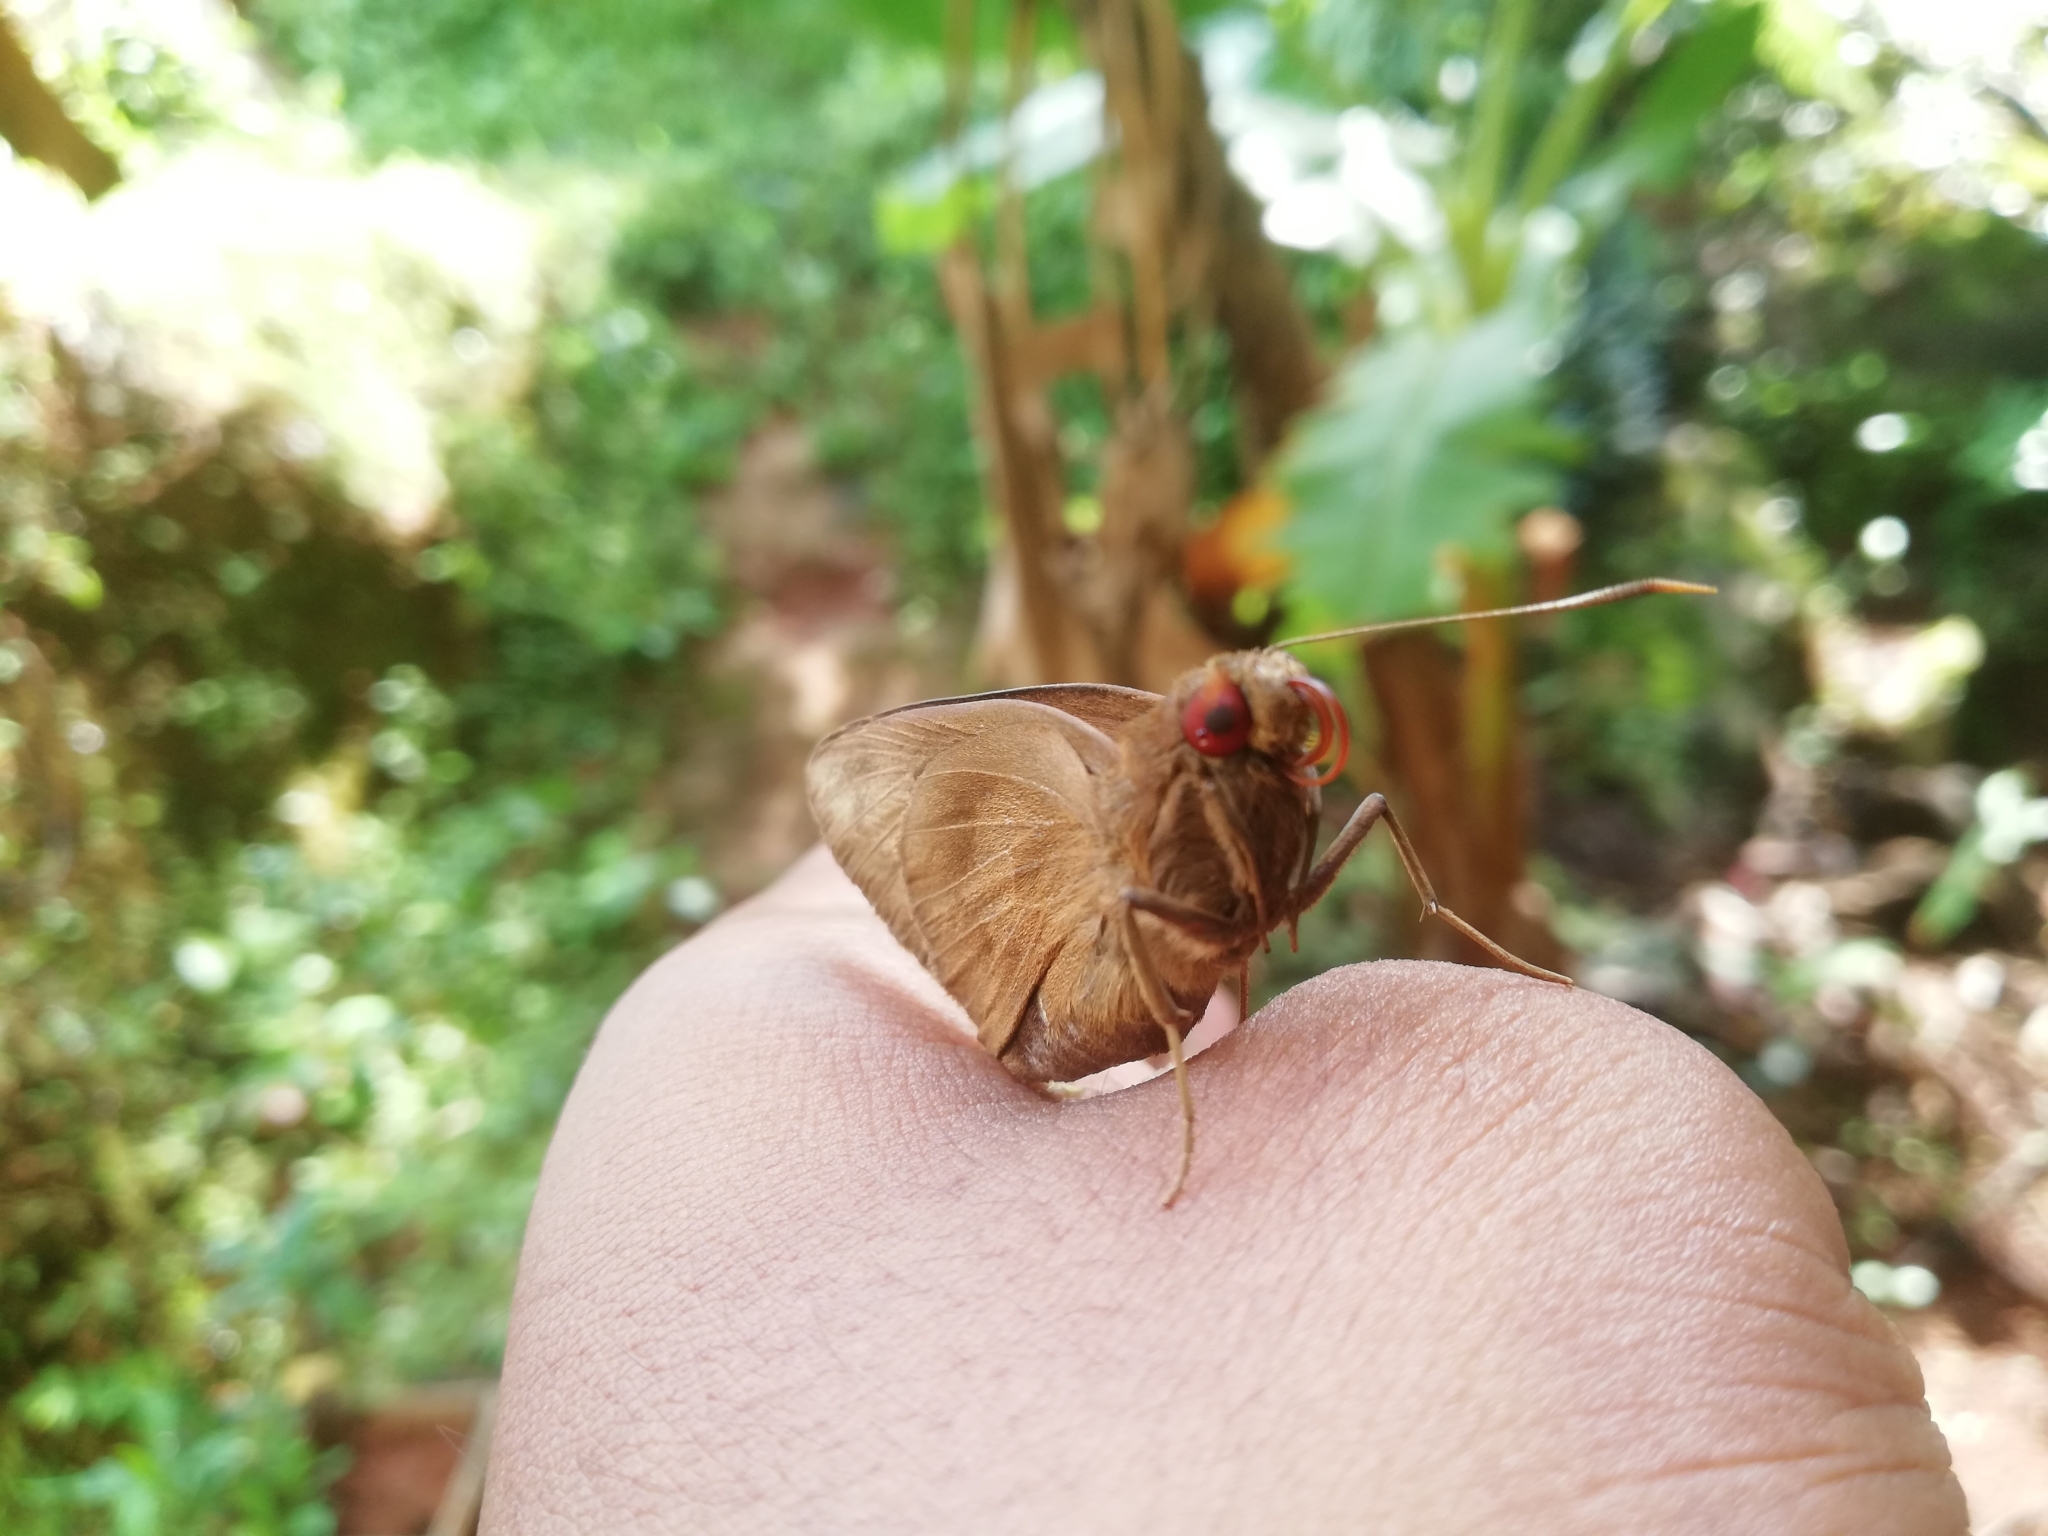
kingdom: Animalia
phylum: Arthropoda
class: Insecta
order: Lepidoptera
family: Hesperiidae
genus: Erionota
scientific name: Erionota torus
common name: Rounded palm-redeye
